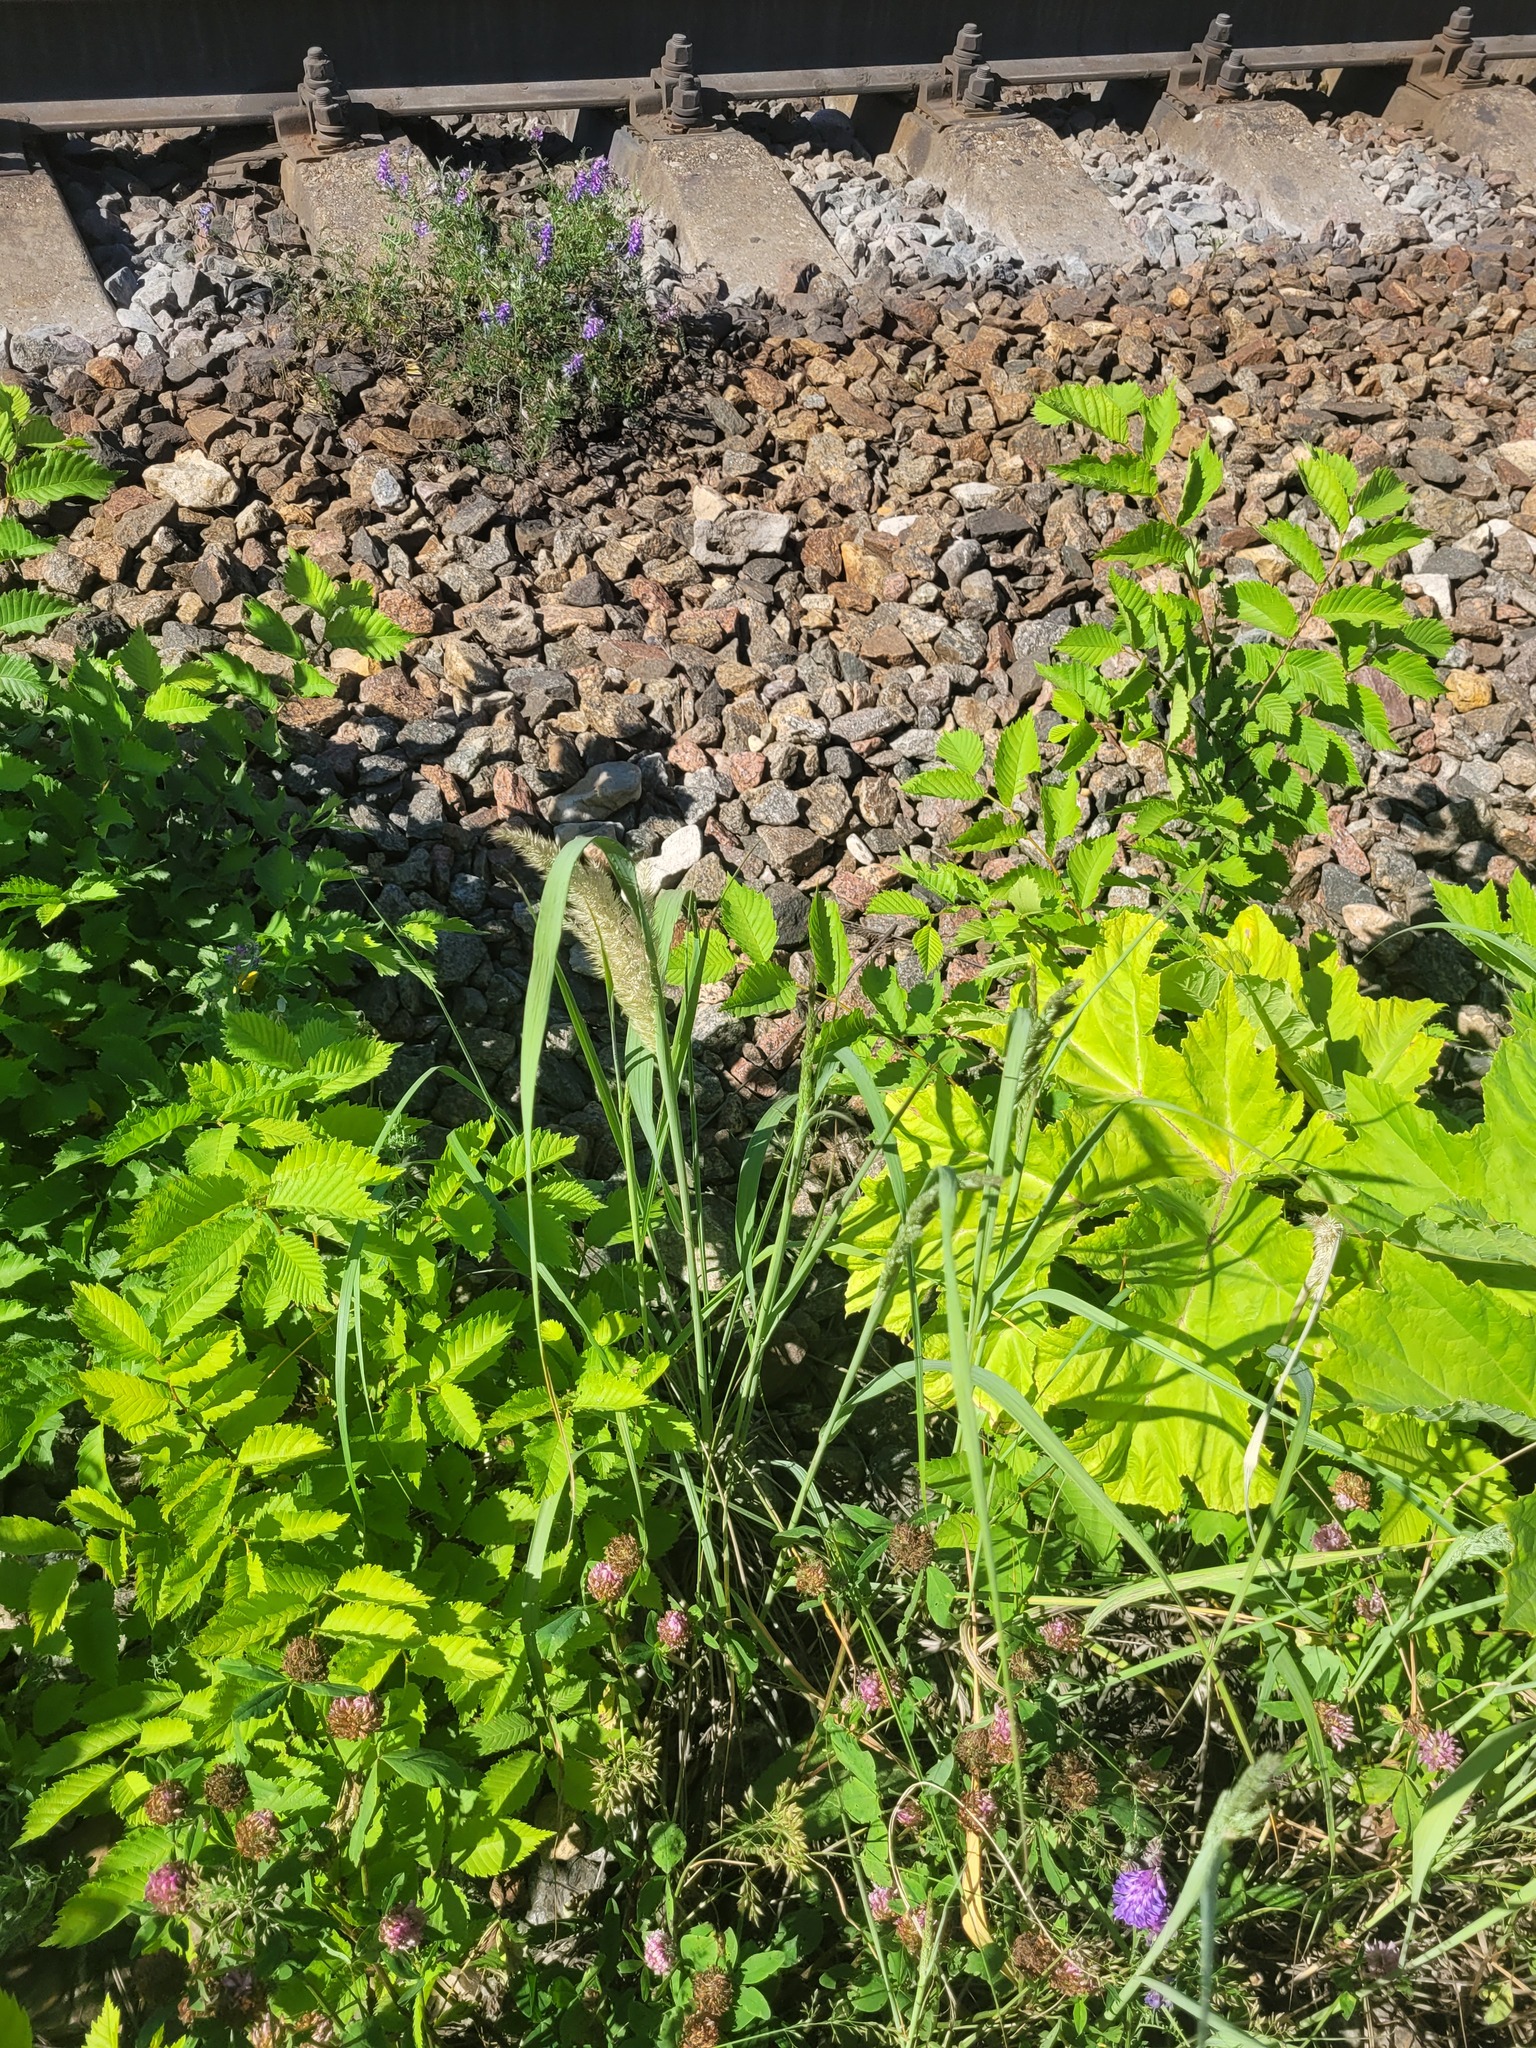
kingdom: Plantae
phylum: Tracheophyta
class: Liliopsida
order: Poales
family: Poaceae
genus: Calamagrostis
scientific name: Calamagrostis epigejos
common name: Wood small-reed
